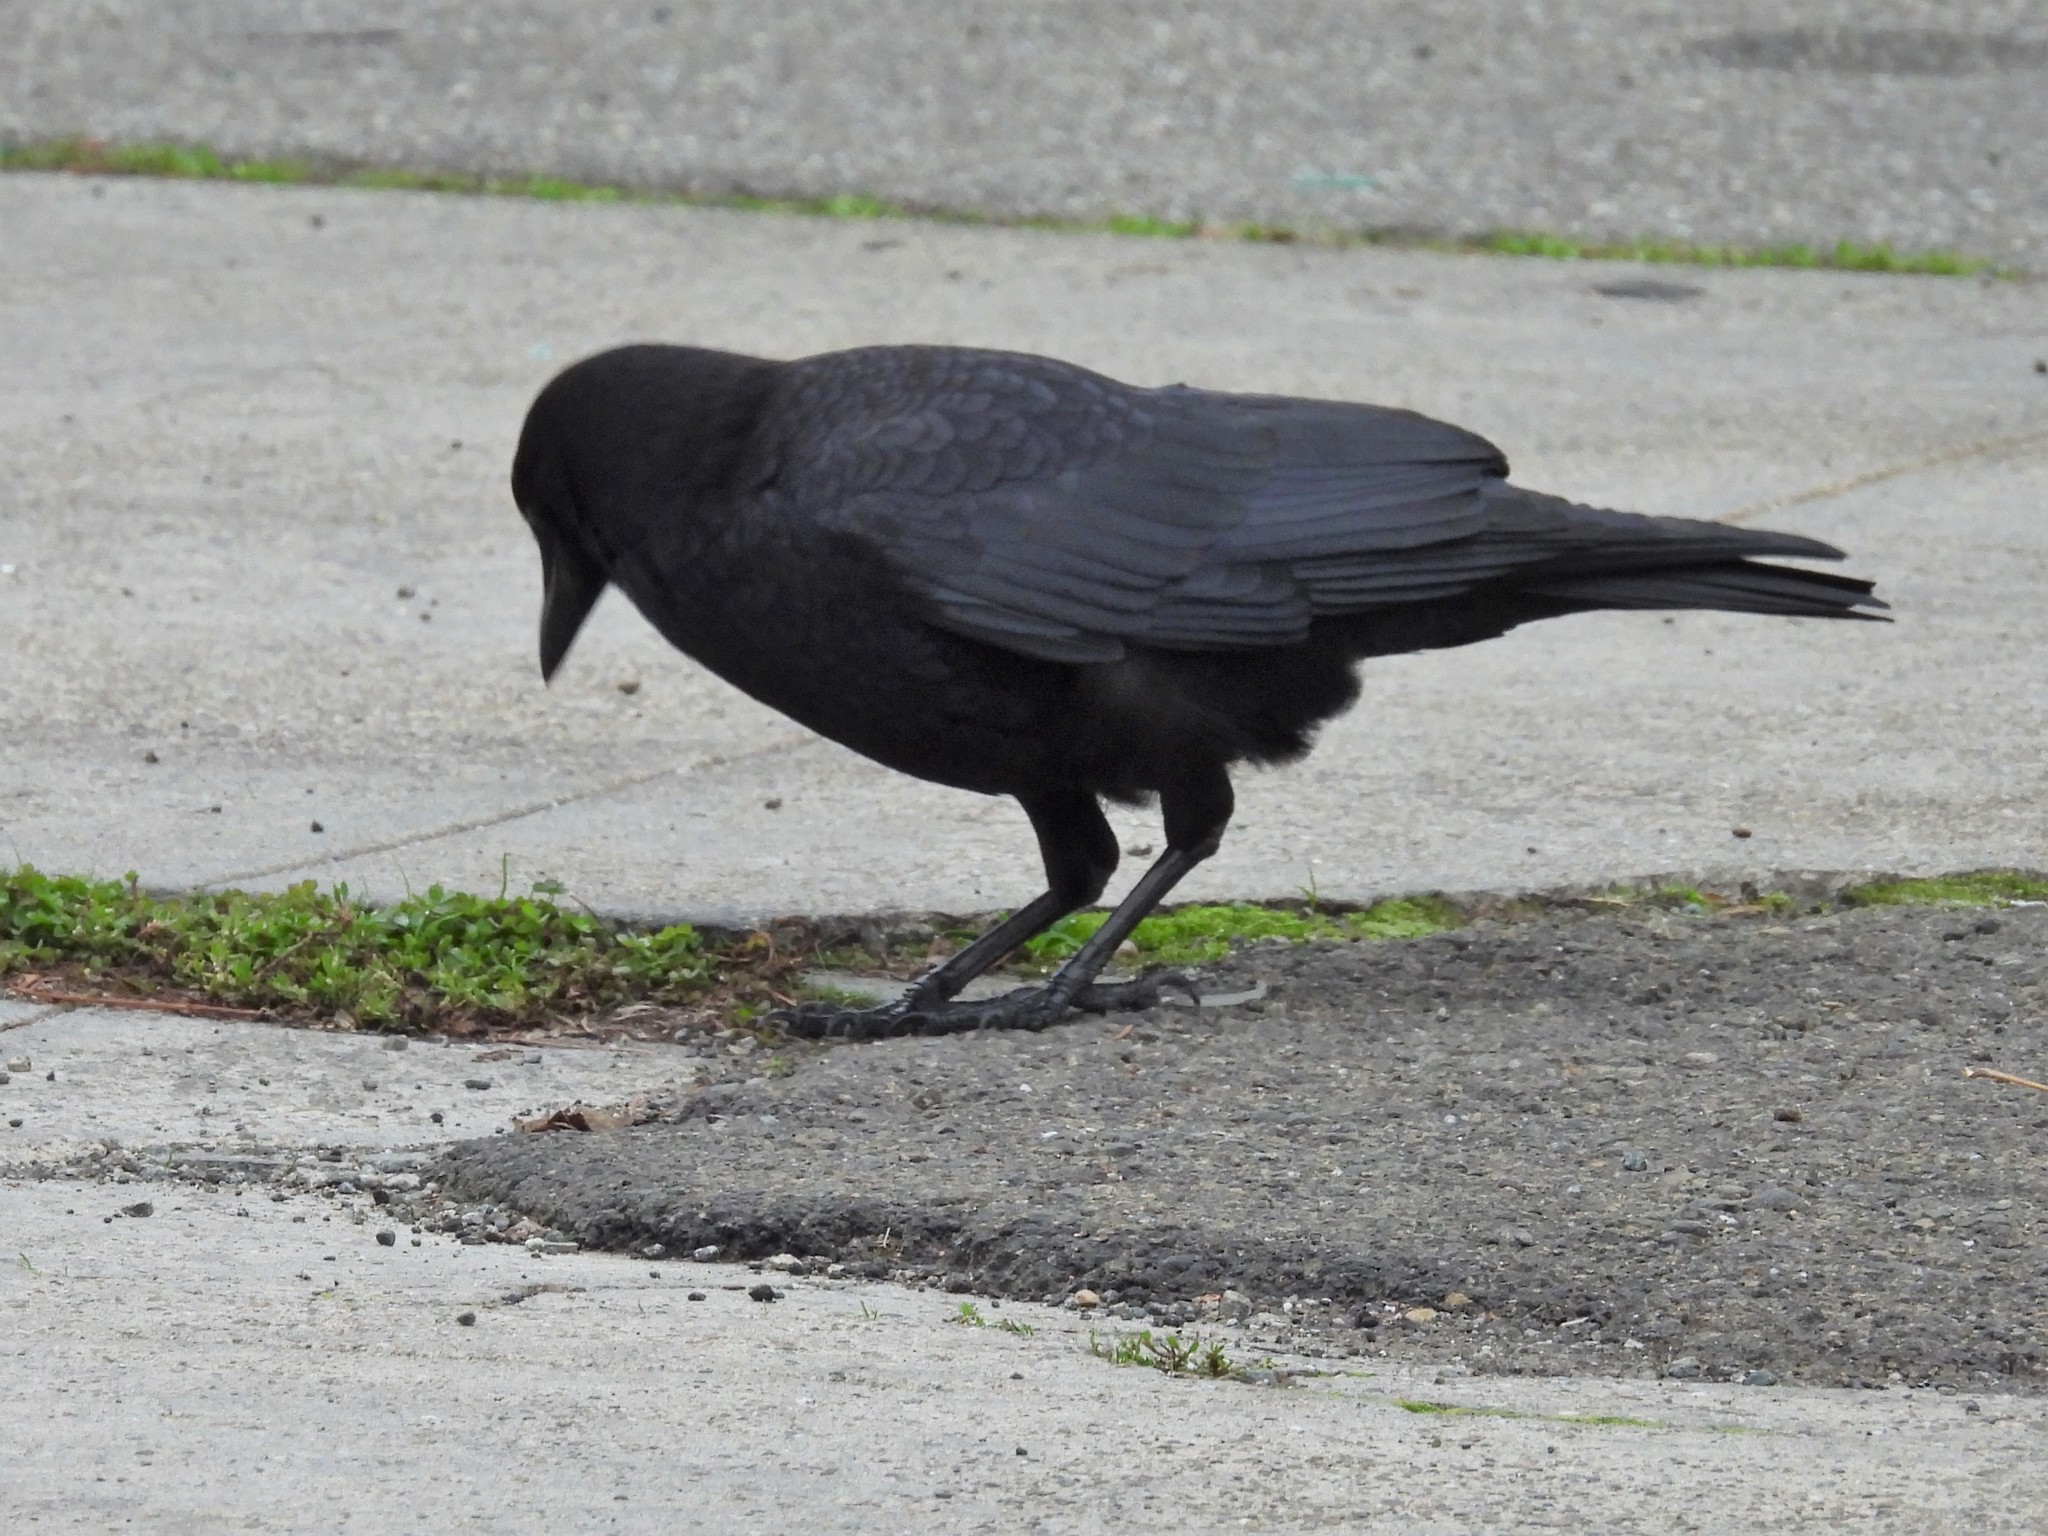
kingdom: Animalia
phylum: Chordata
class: Aves
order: Passeriformes
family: Corvidae
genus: Corvus
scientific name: Corvus brachyrhynchos
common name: American crow
